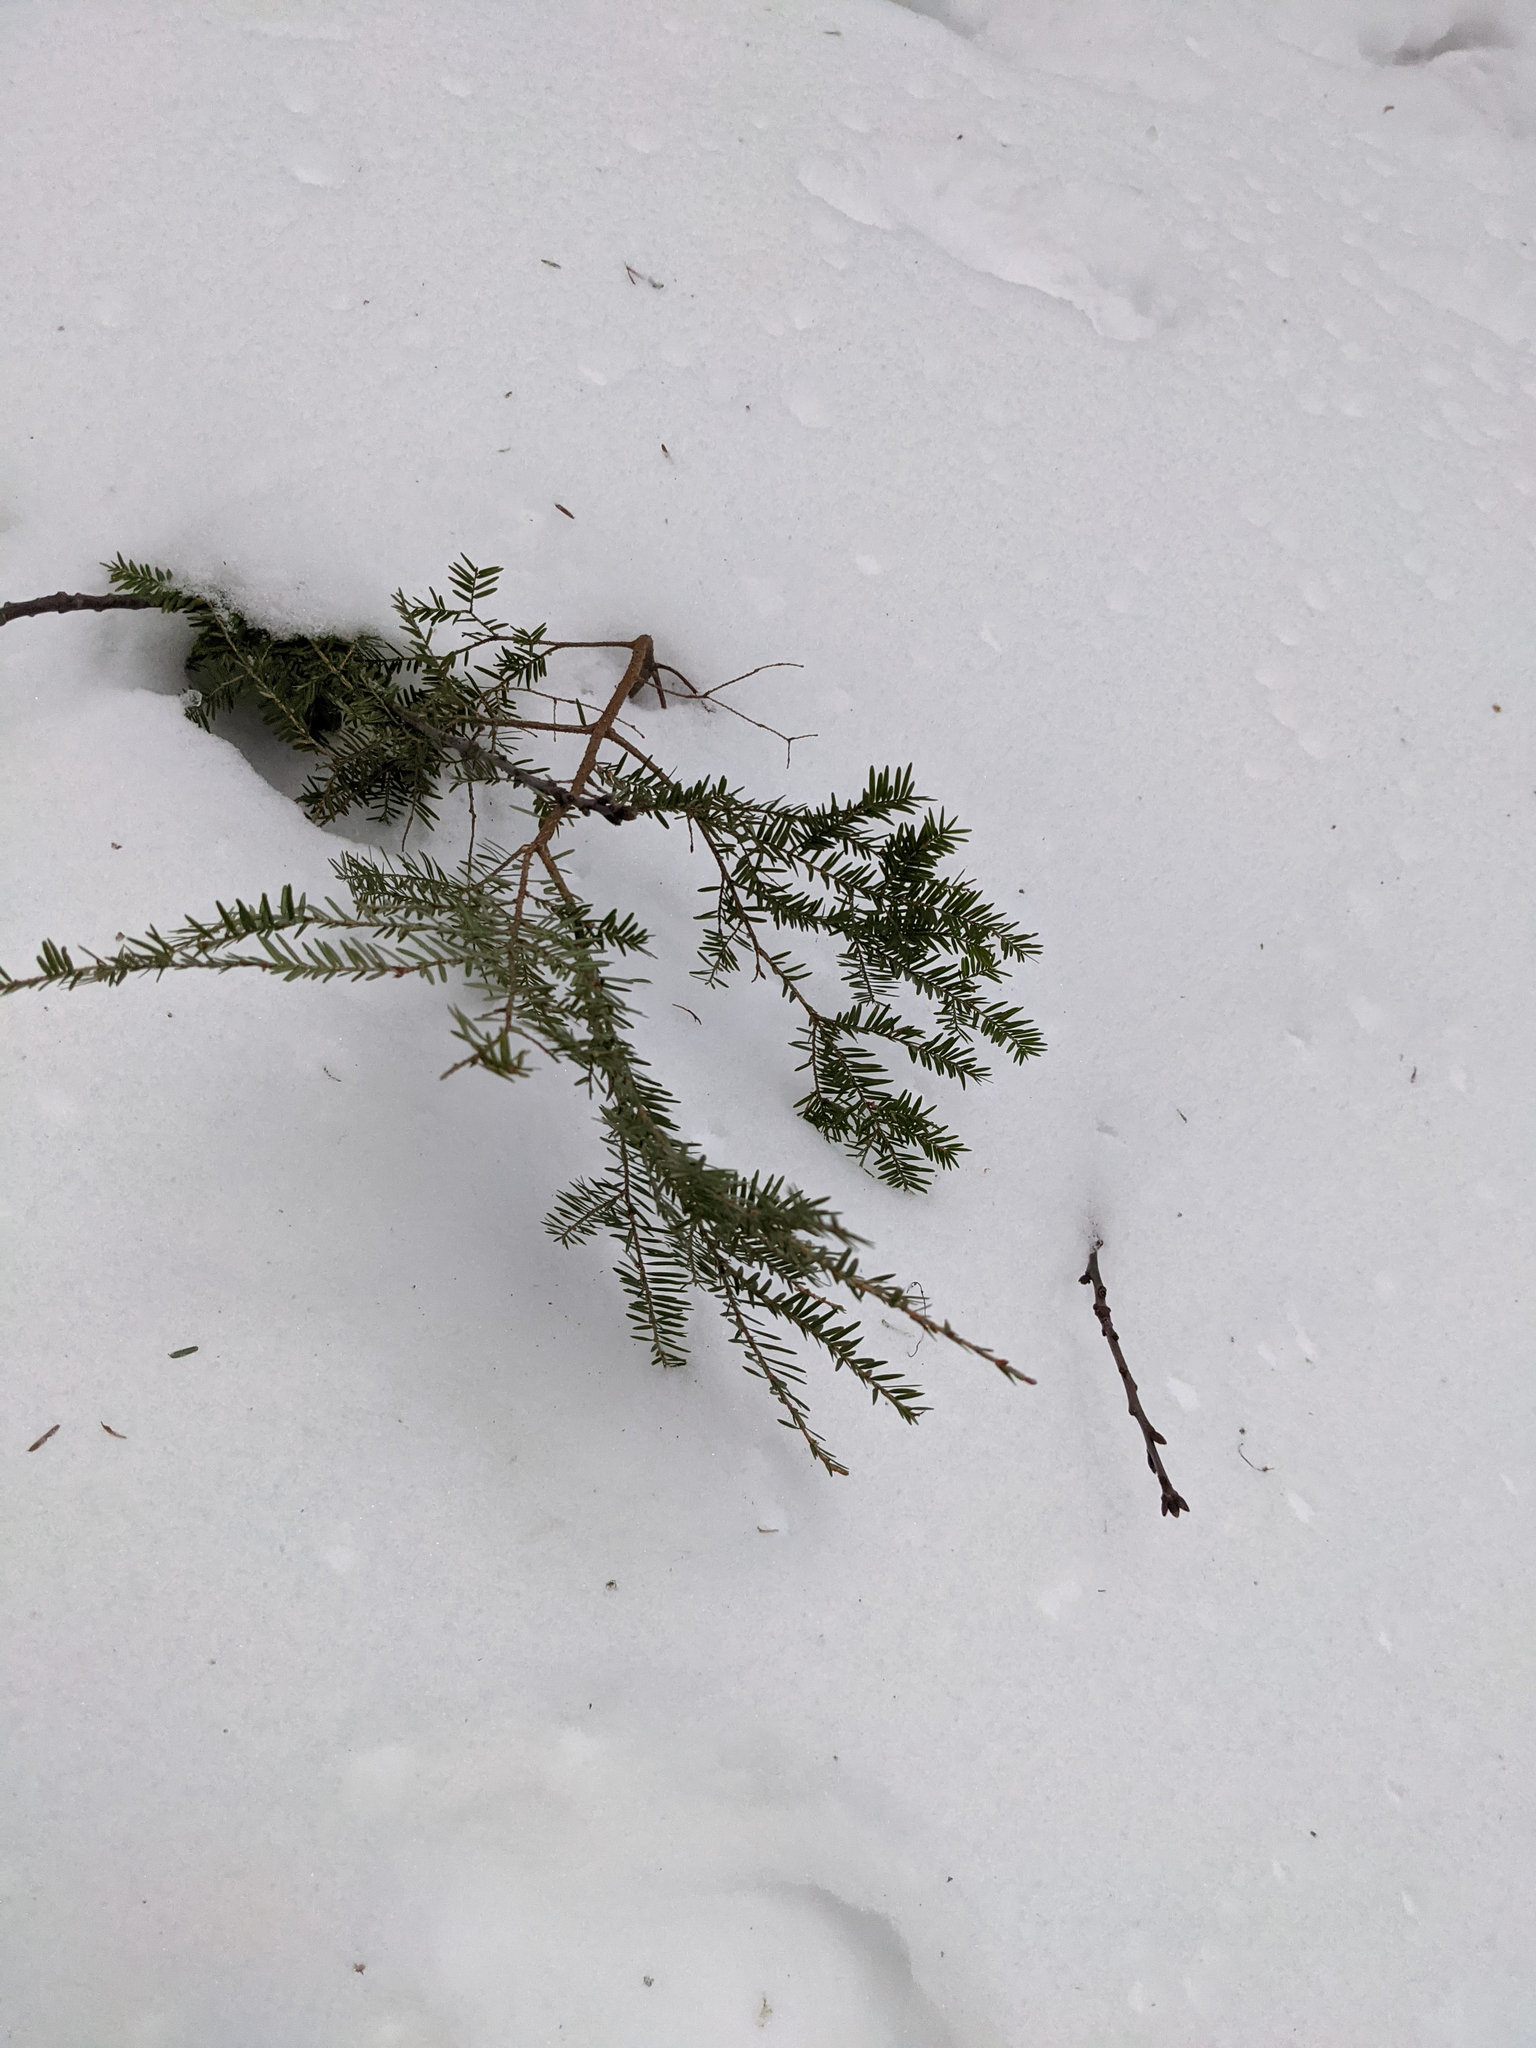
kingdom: Plantae
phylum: Tracheophyta
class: Pinopsida
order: Pinales
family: Pinaceae
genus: Tsuga
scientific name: Tsuga canadensis
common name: Eastern hemlock
